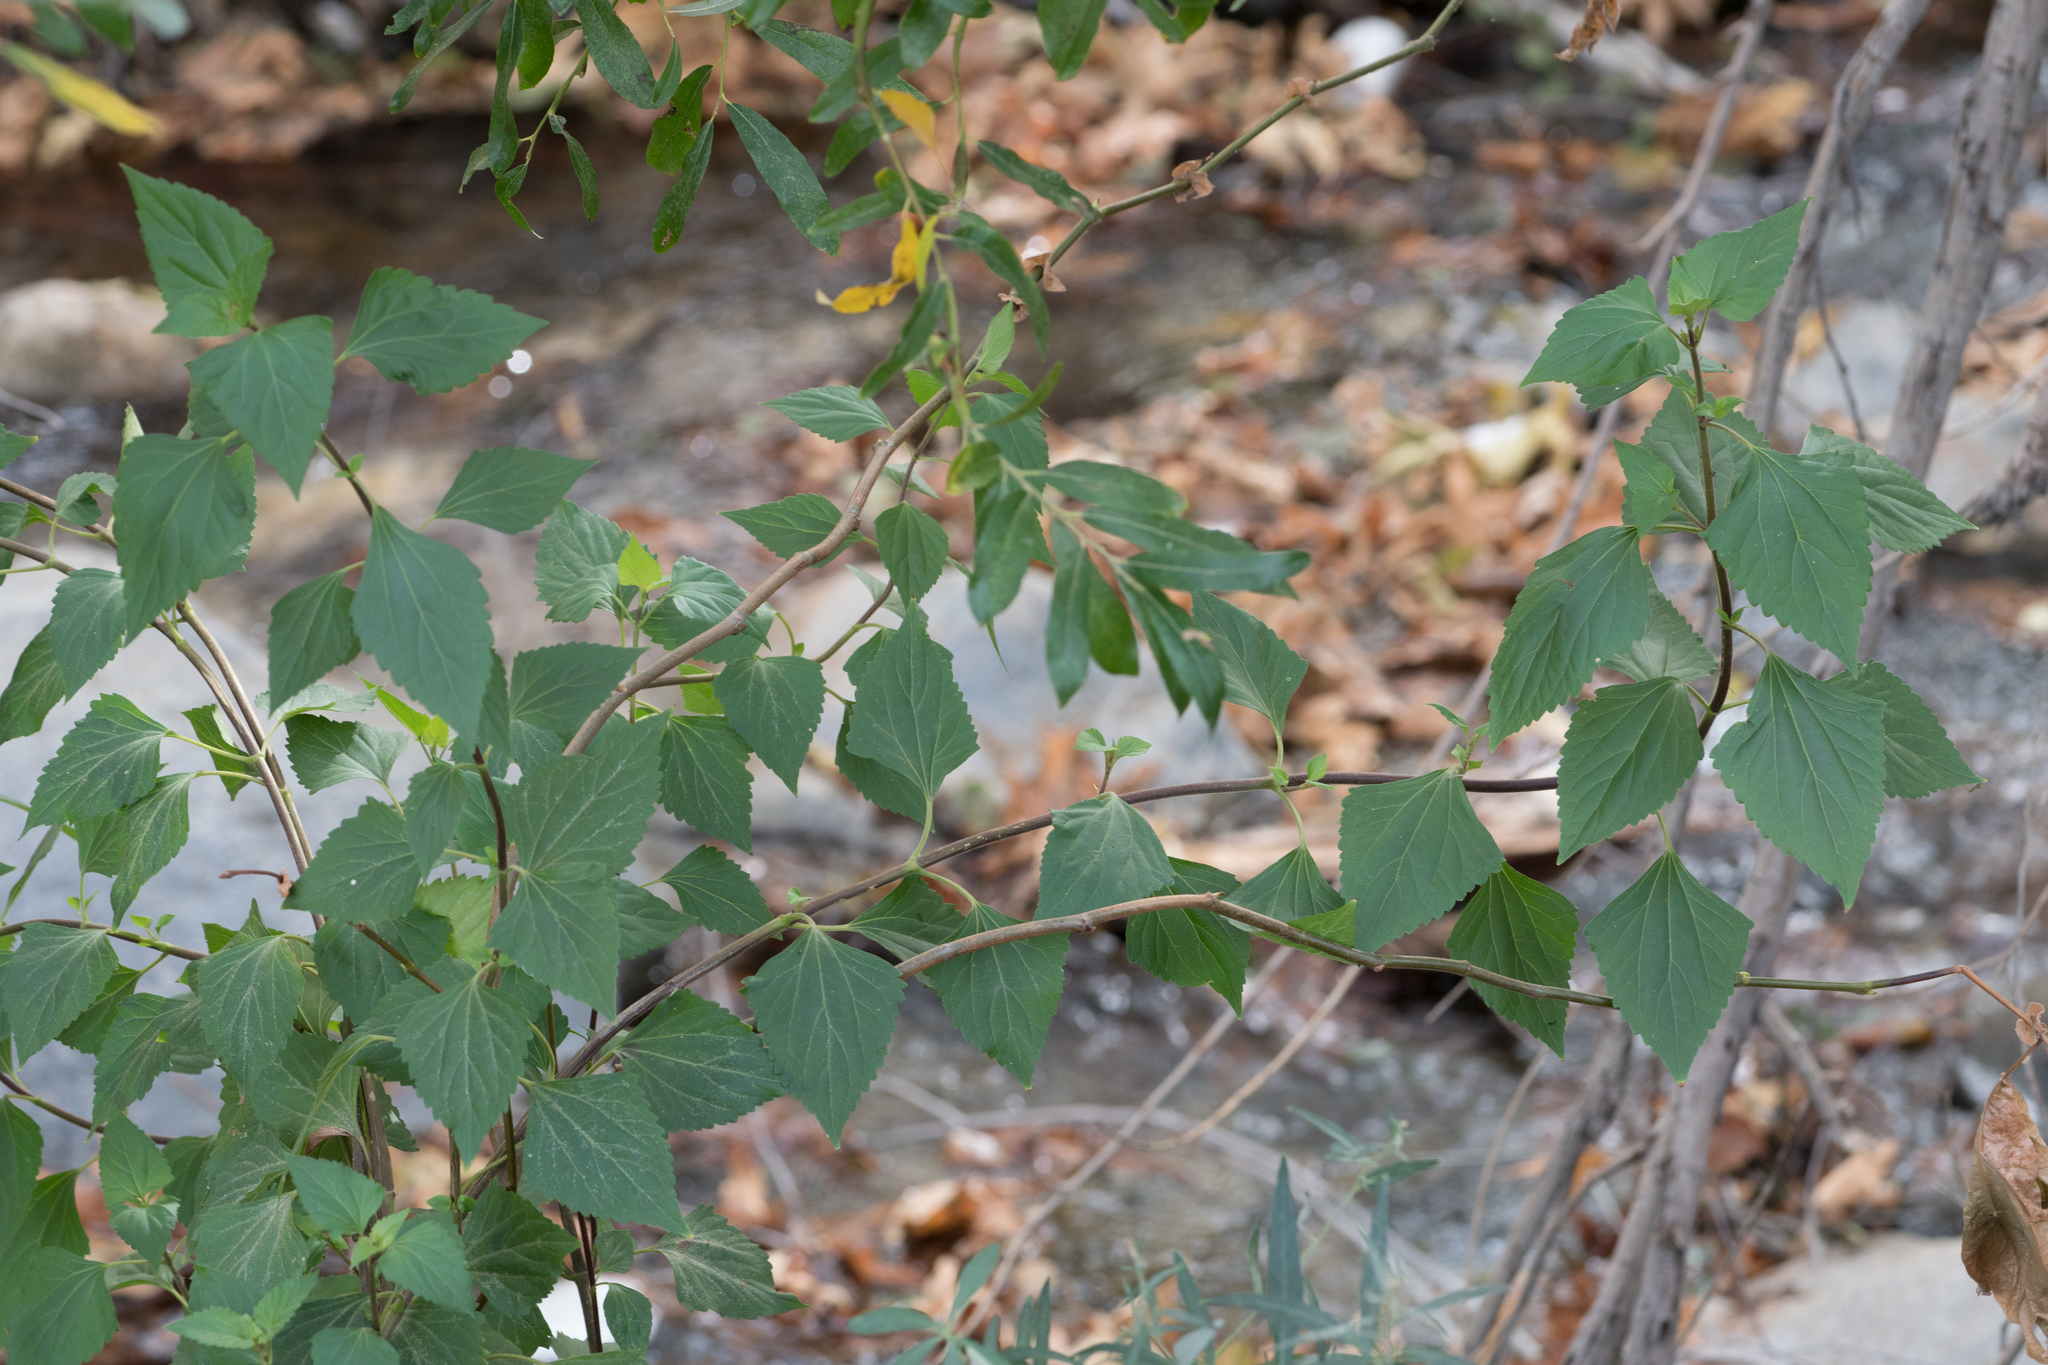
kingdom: Plantae
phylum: Tracheophyta
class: Magnoliopsida
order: Asterales
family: Asteraceae
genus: Ageratina
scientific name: Ageratina adenophora
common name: Sticky snakeroot
